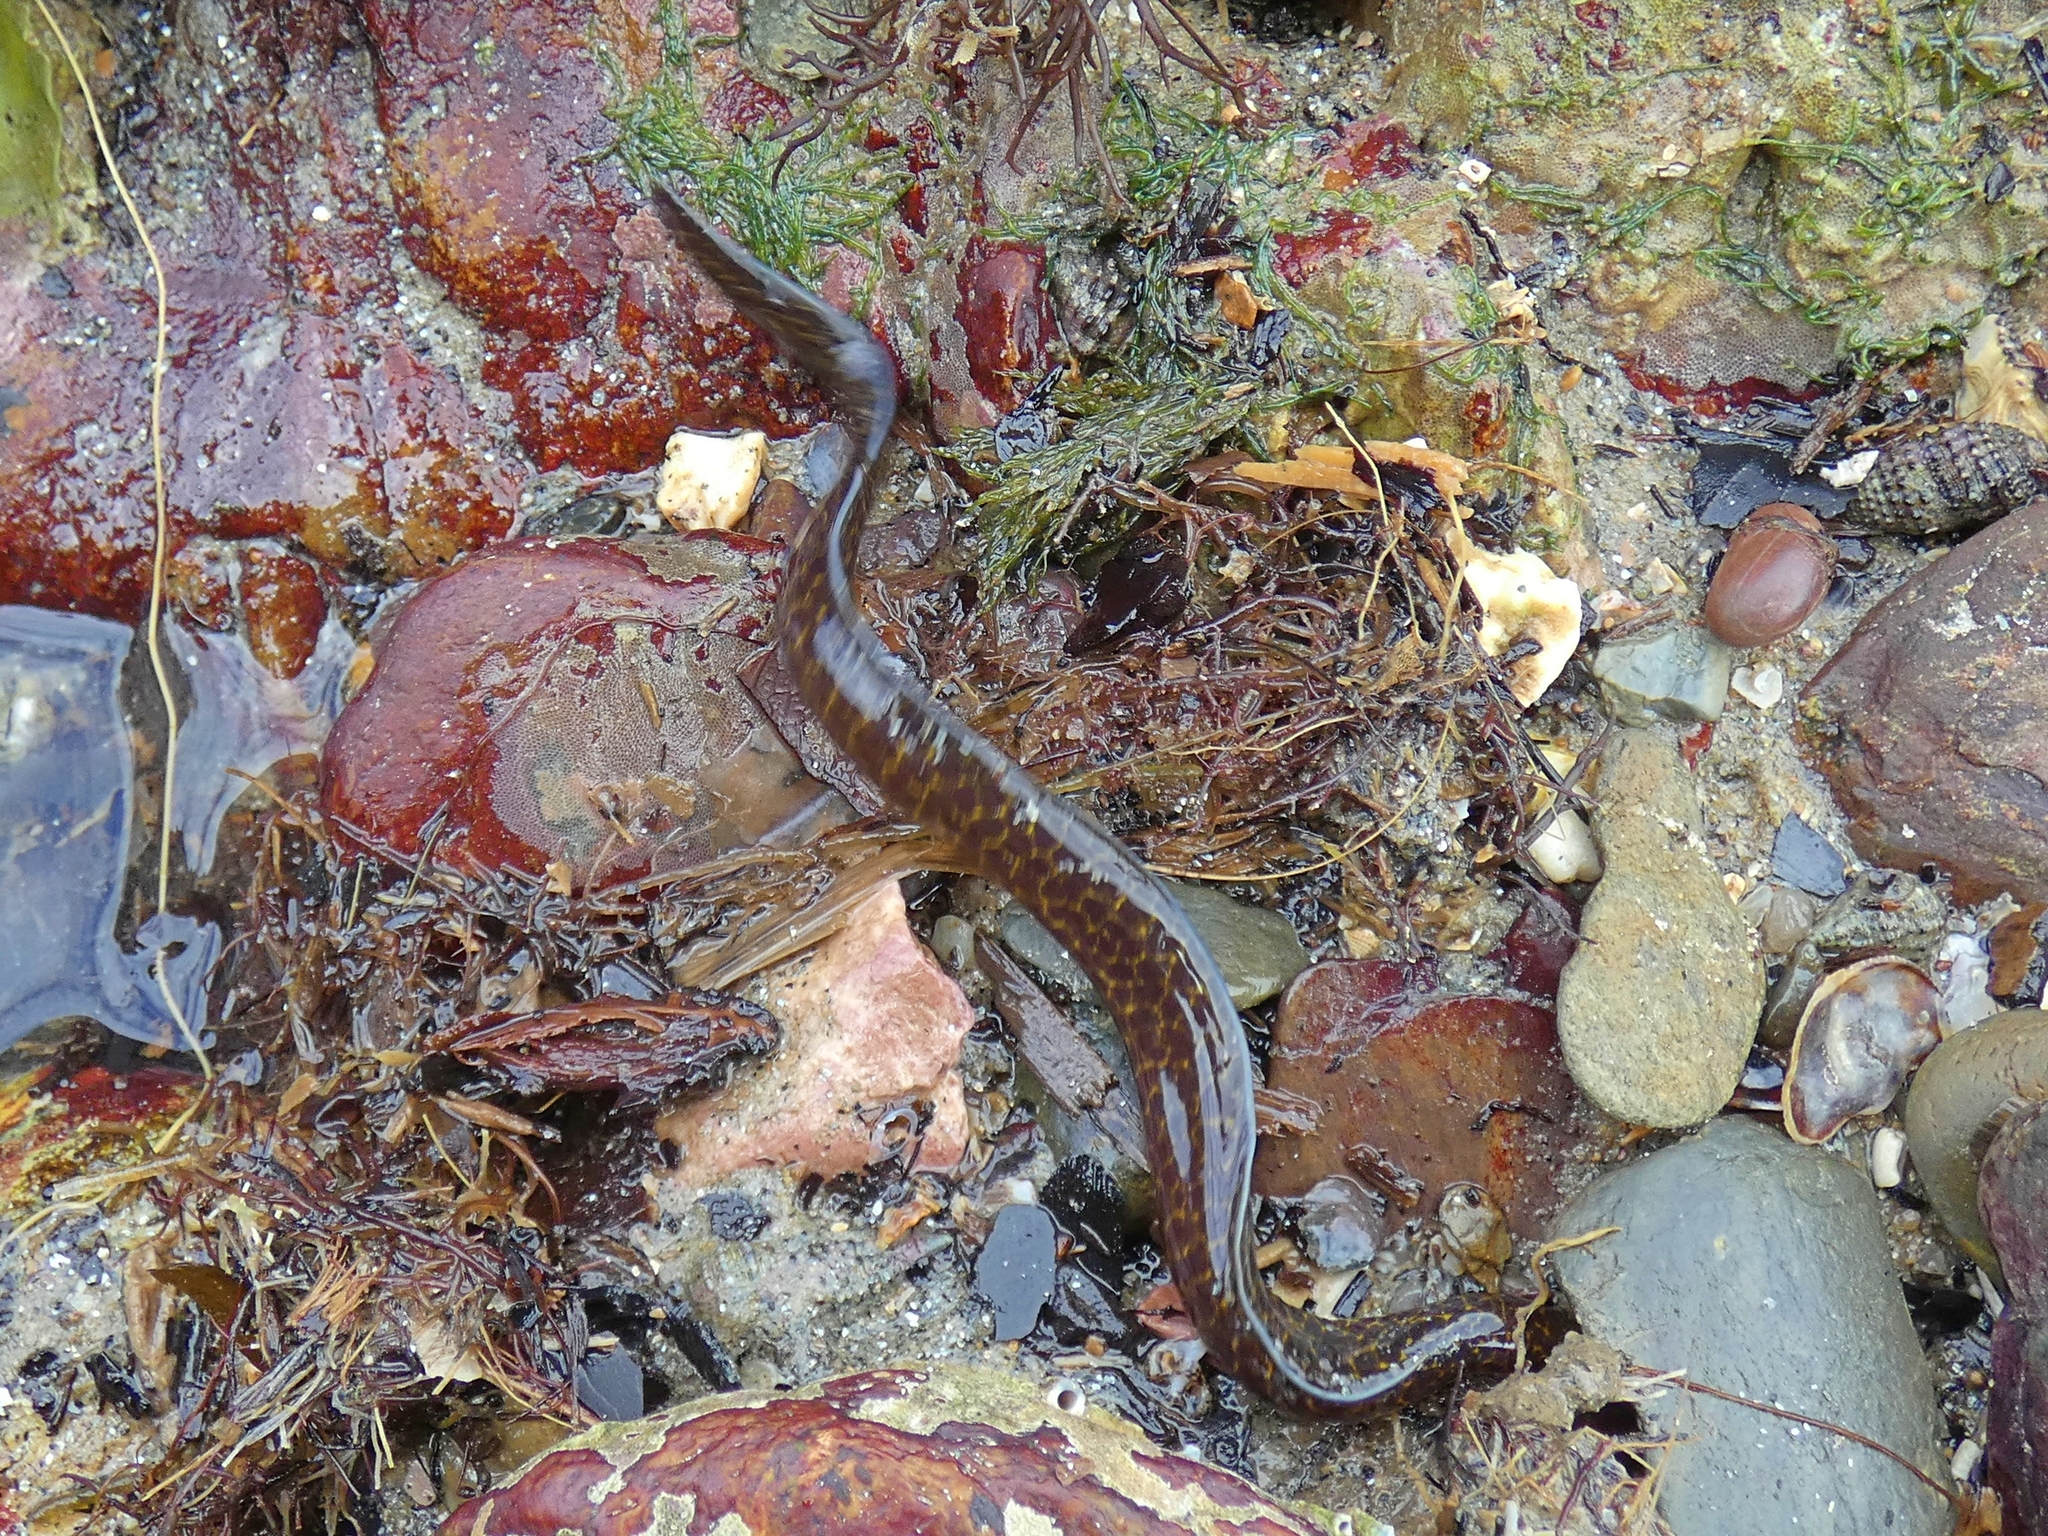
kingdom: Animalia
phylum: Chordata
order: Anguilliformes
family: Muraenidae
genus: Gymnothorax
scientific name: Gymnothorax pseudothyrsoideus
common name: Highfin moray
